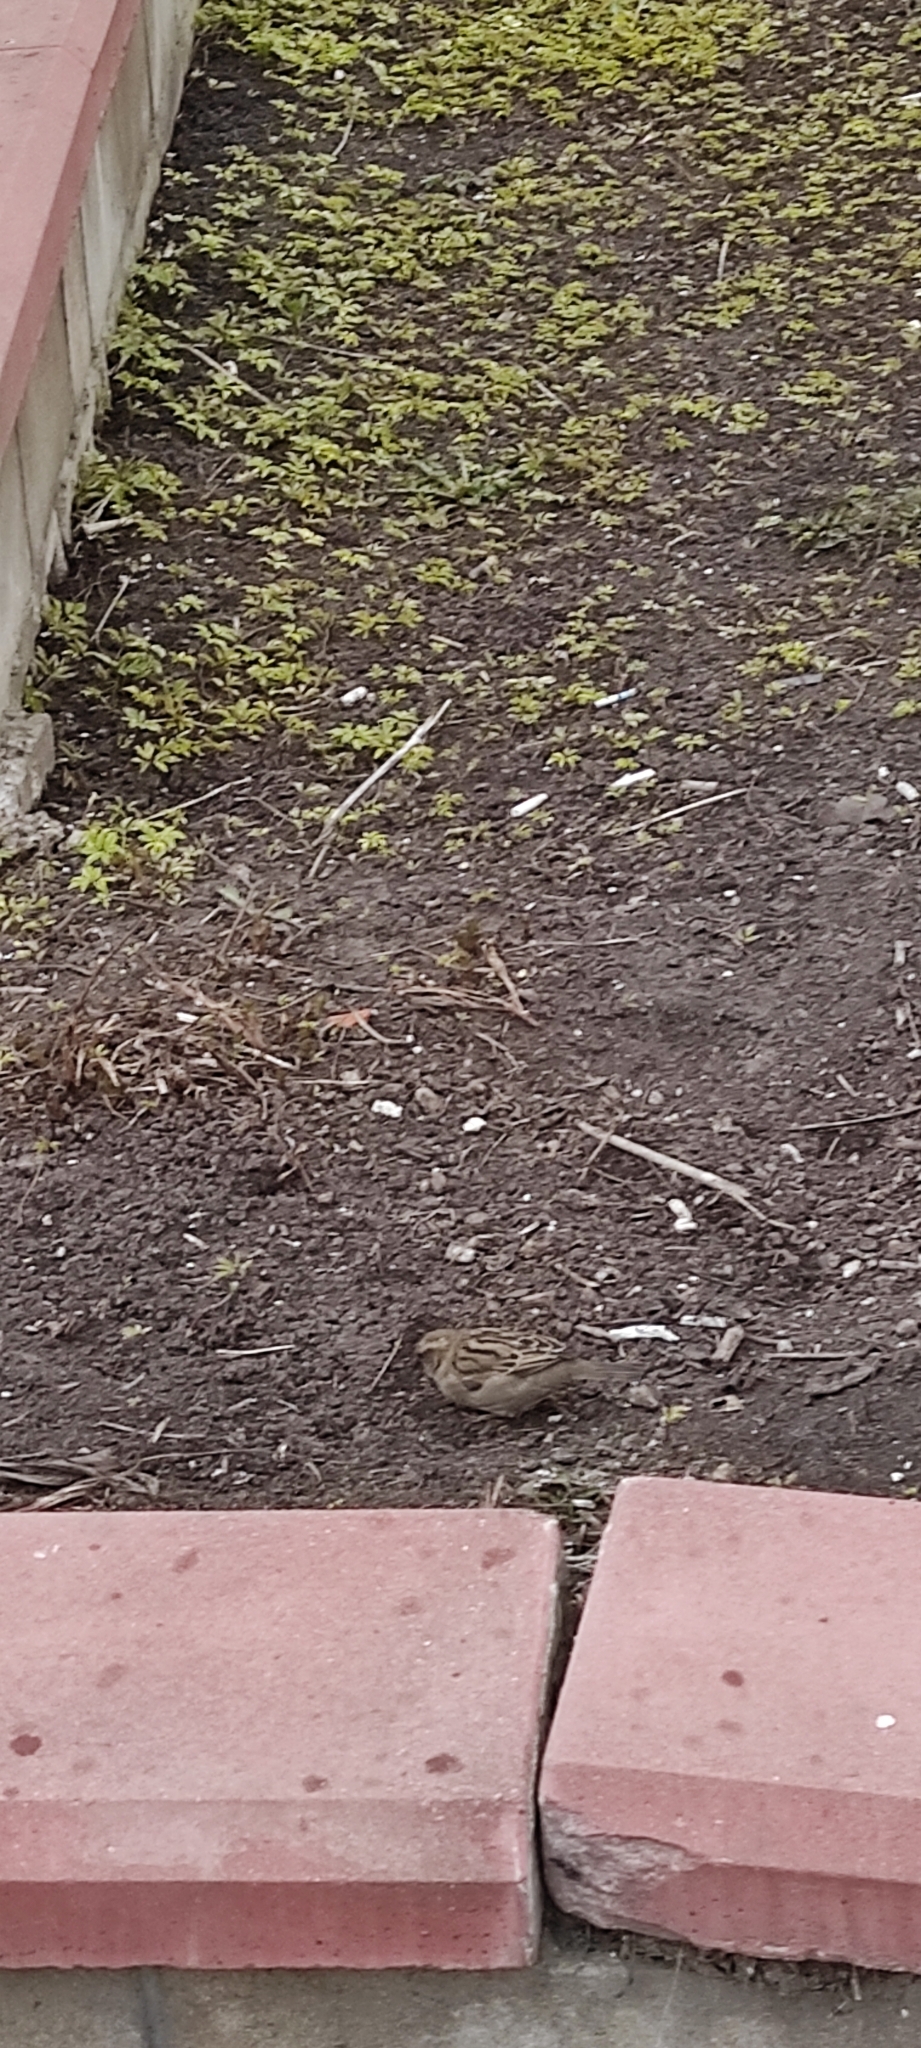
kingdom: Animalia
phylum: Chordata
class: Aves
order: Passeriformes
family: Passeridae
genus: Passer
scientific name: Passer domesticus
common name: House sparrow
